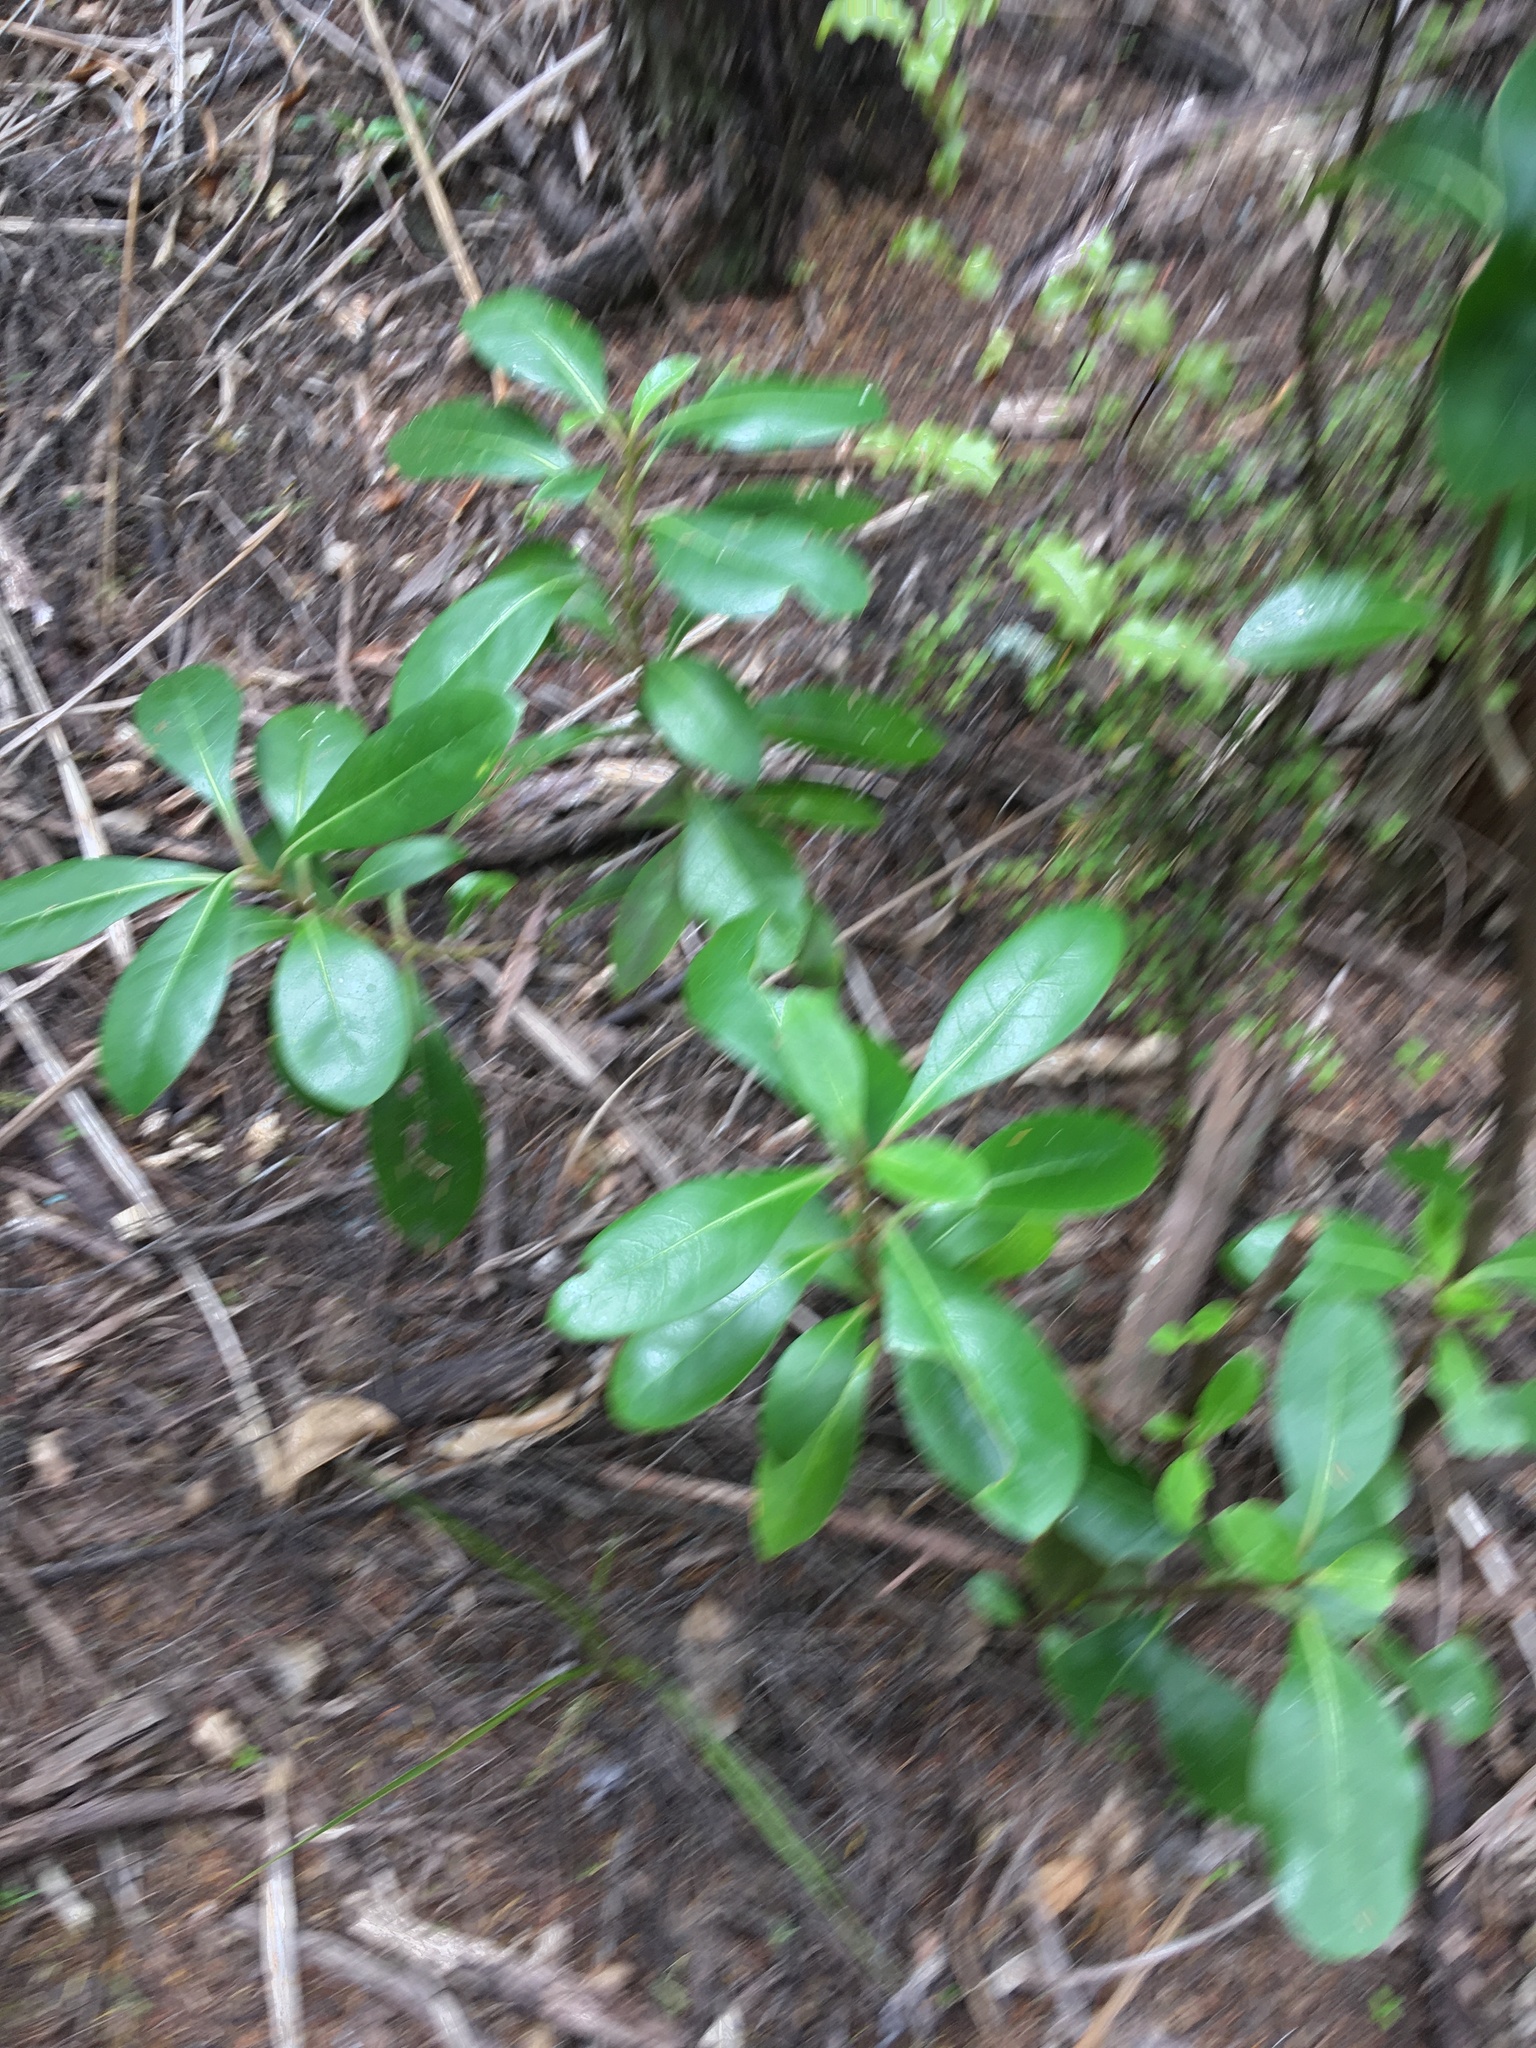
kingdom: Plantae
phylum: Tracheophyta
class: Magnoliopsida
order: Gentianales
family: Rubiaceae
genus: Coprosma
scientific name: Coprosma lucida
